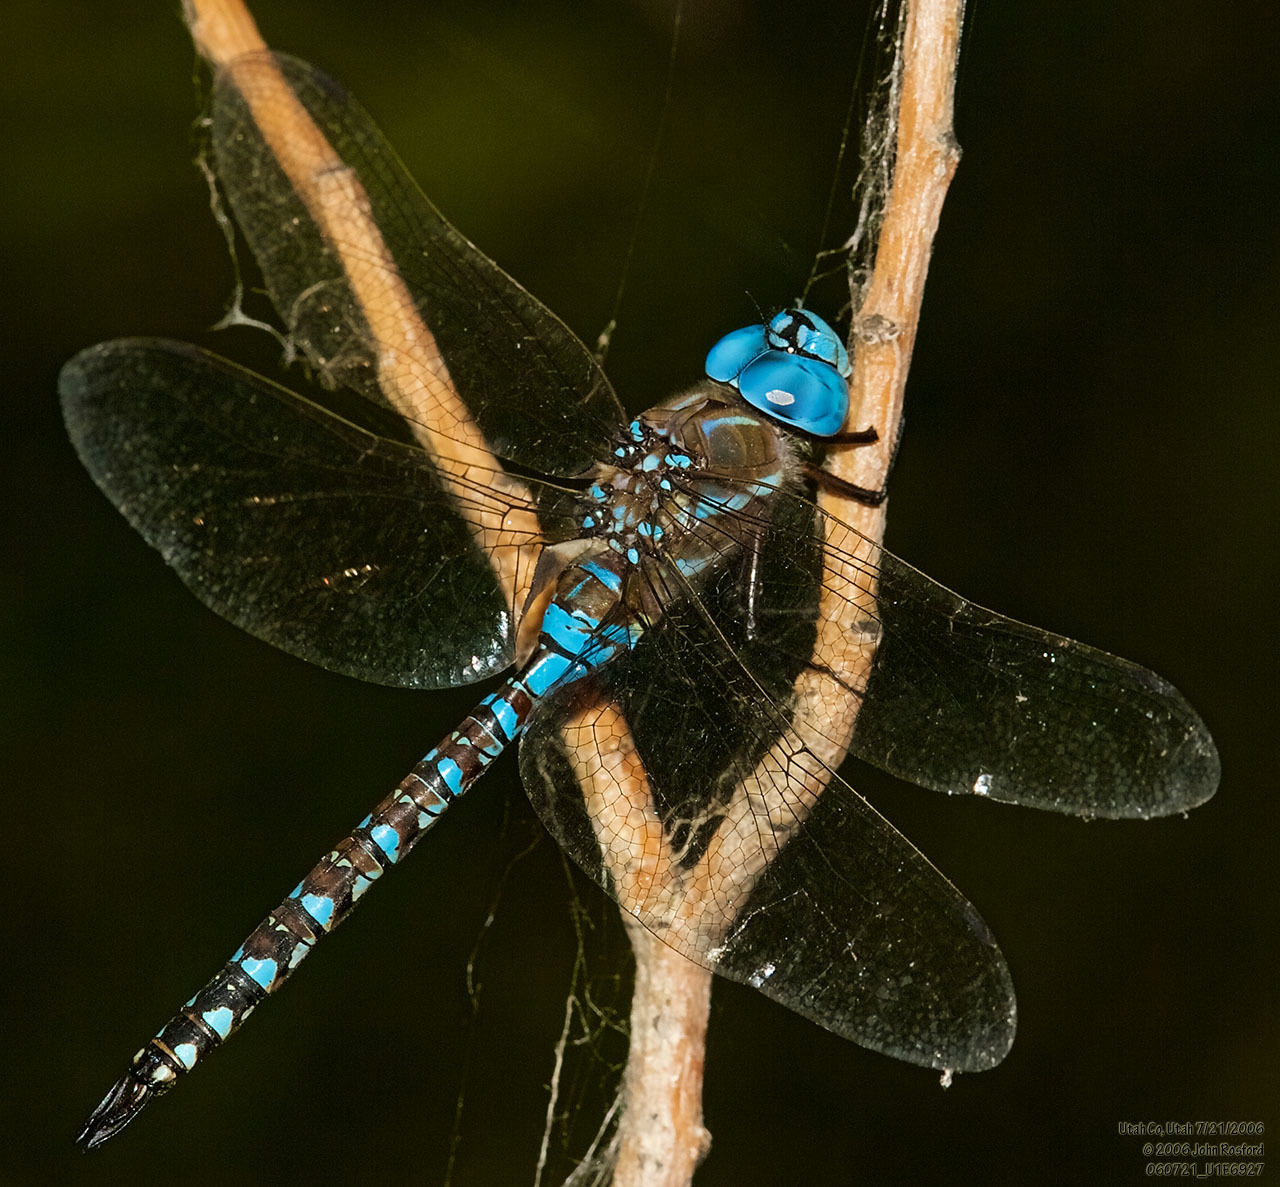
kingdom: Animalia
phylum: Arthropoda
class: Insecta
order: Odonata
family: Aeshnidae
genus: Rhionaeschna
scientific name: Rhionaeschna multicolor
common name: Blue-eyed darner
